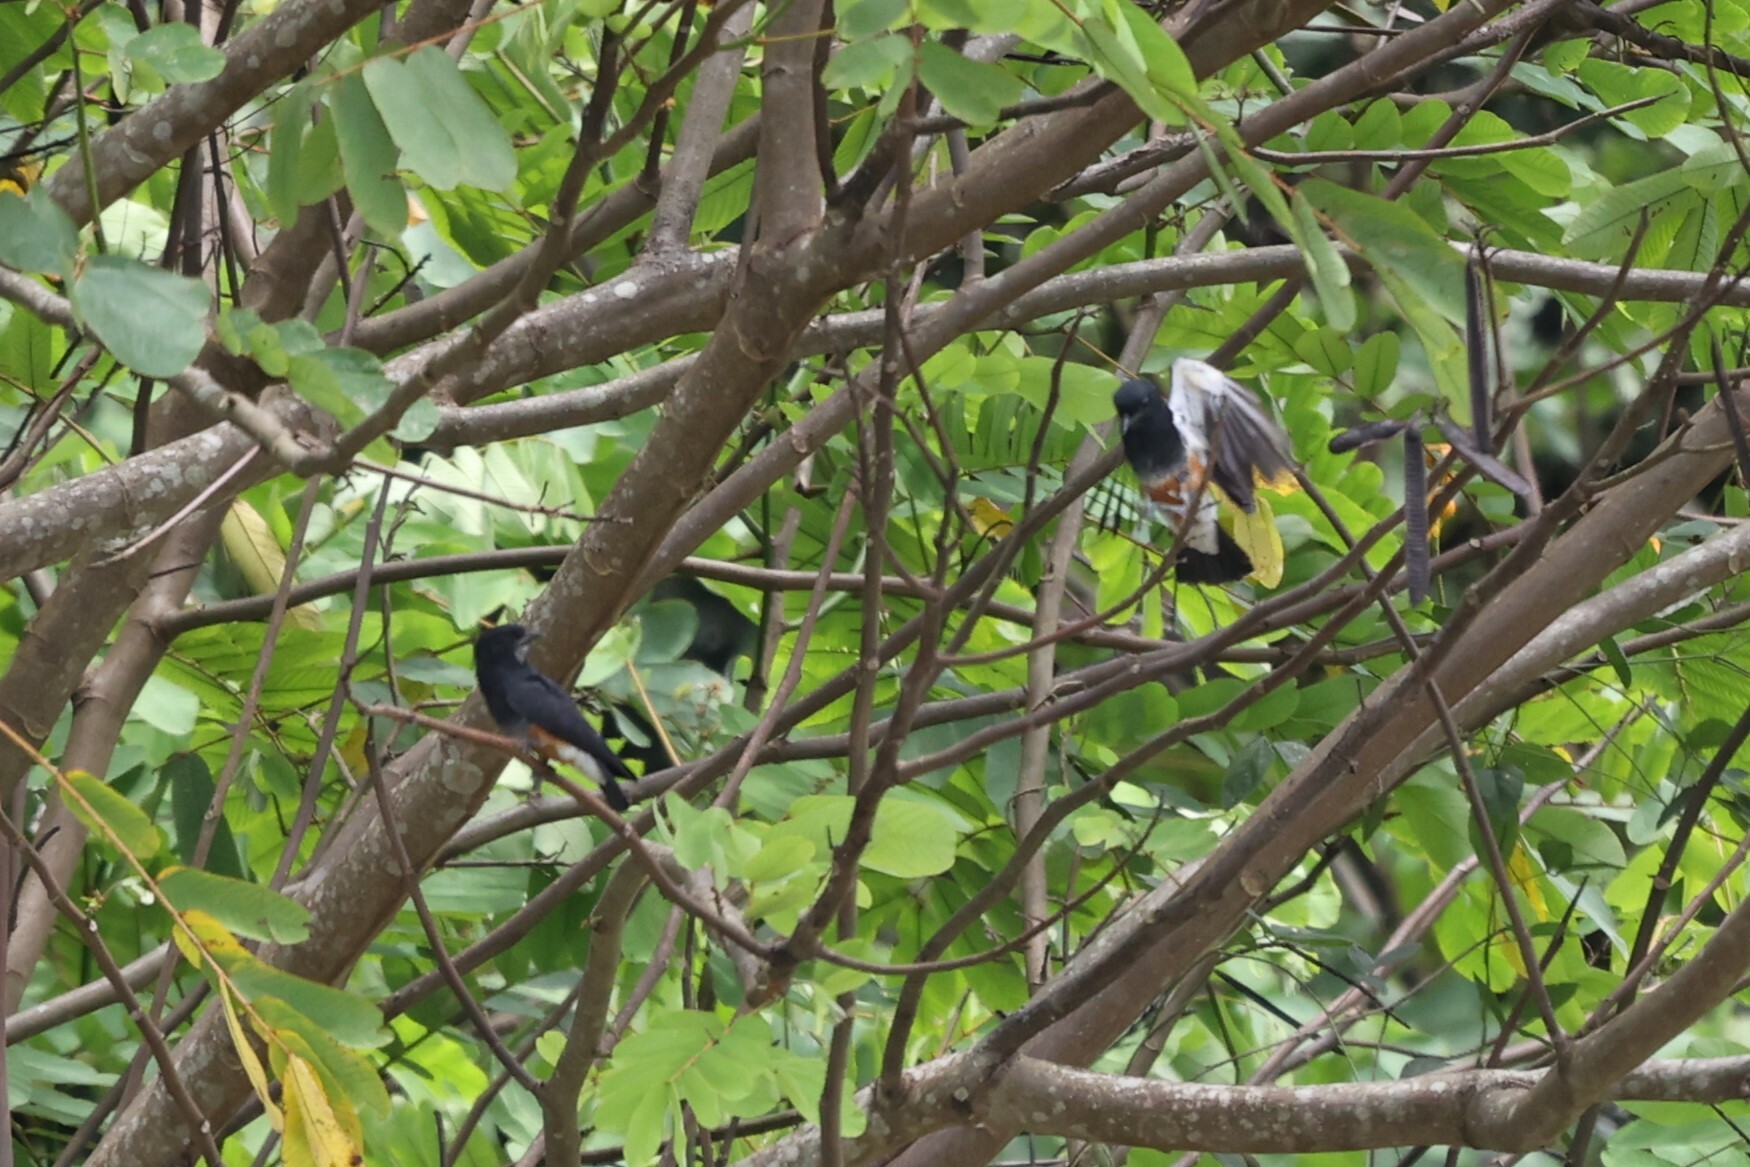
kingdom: Animalia
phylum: Chordata
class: Aves
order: Piciformes
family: Bucconidae
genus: Chelidoptera
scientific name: Chelidoptera tenebrosa
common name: Swallow-winged puffbird
